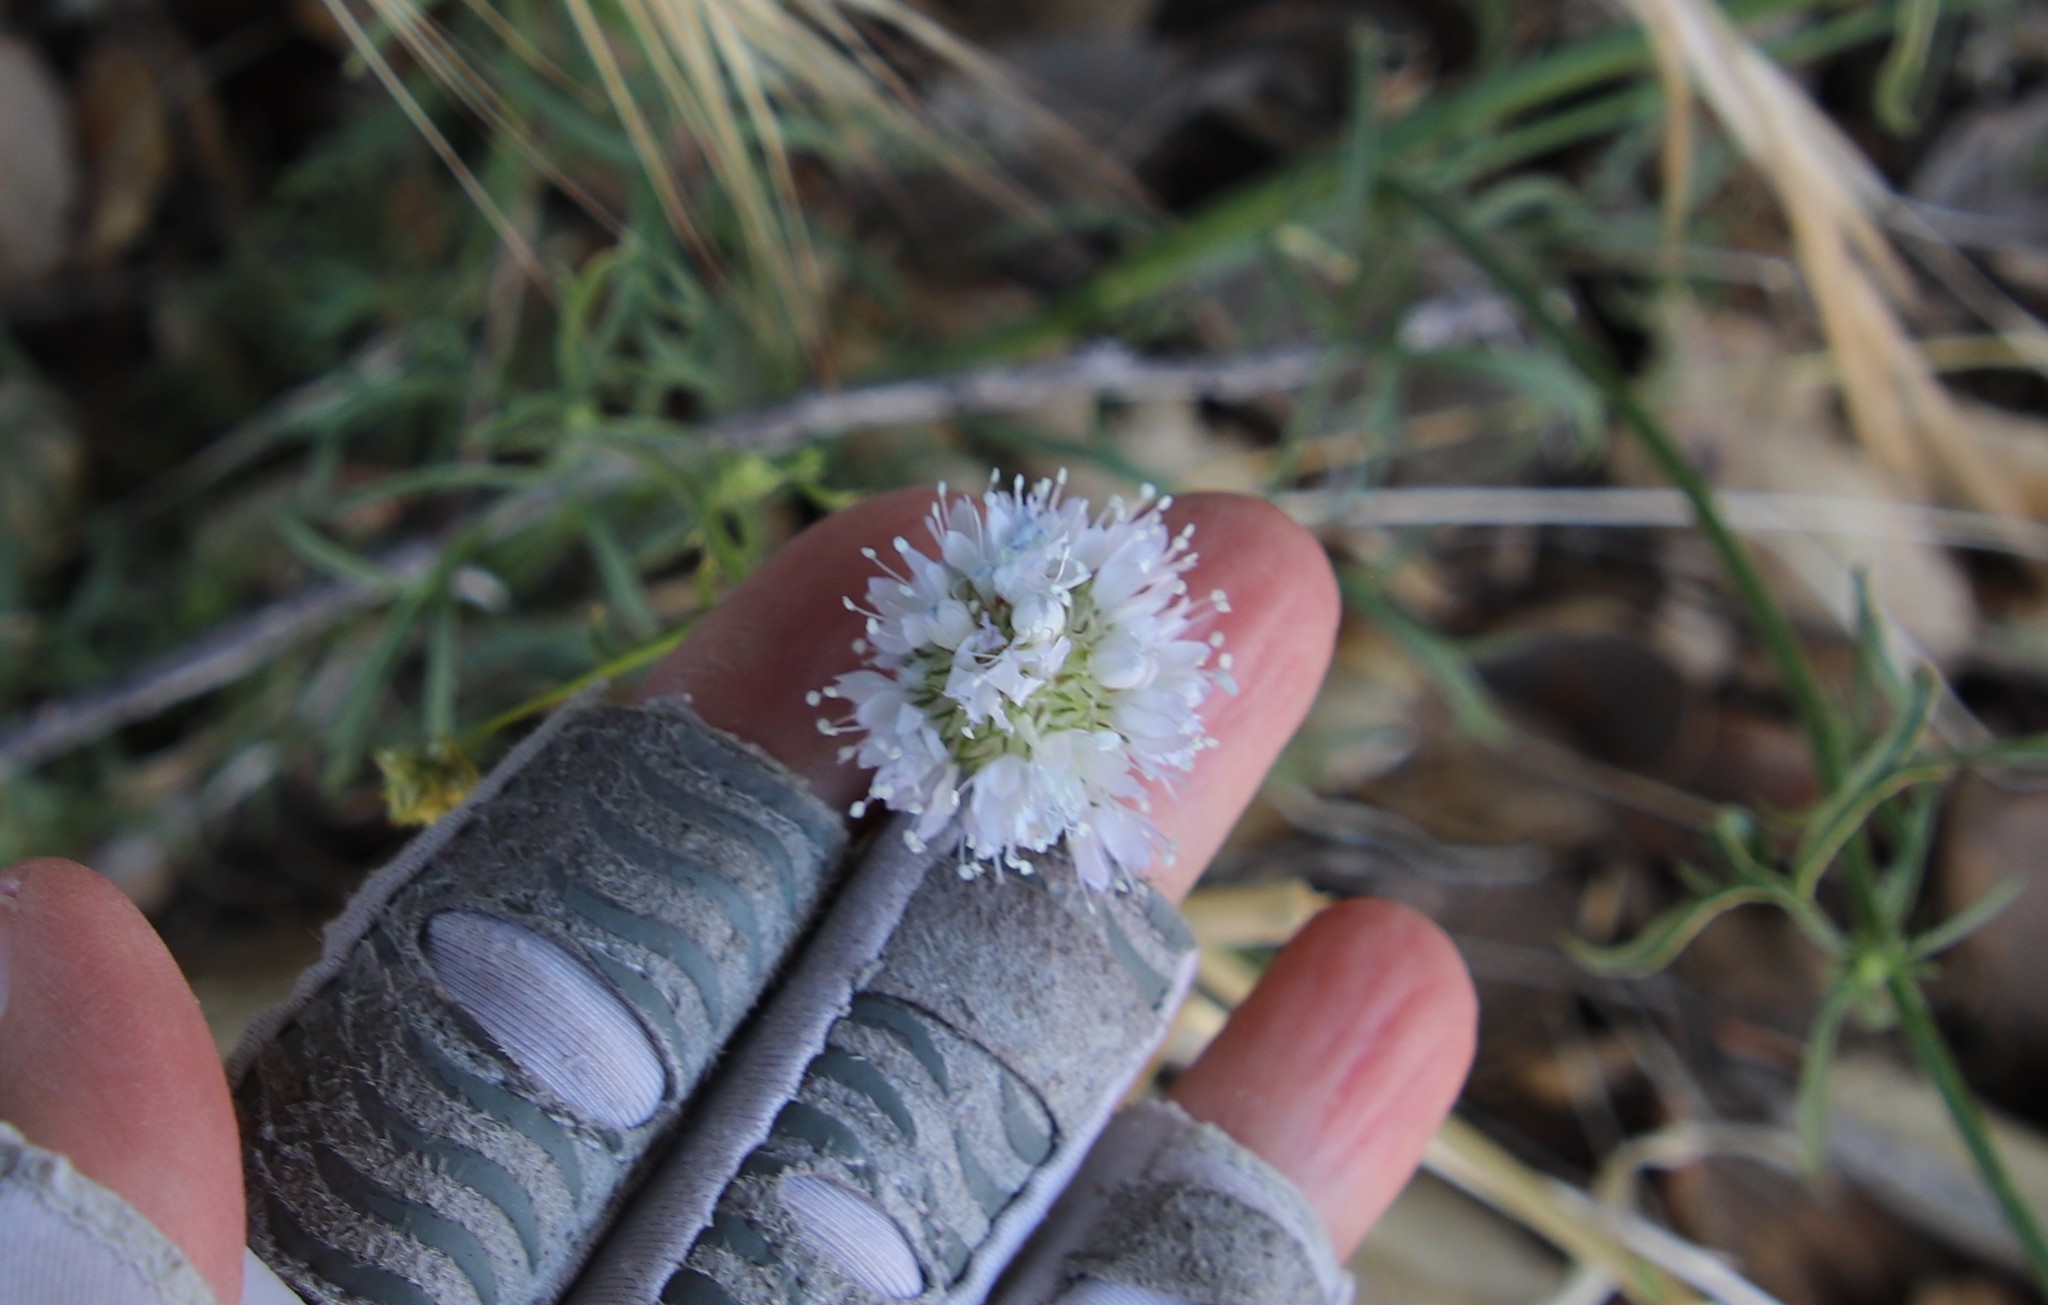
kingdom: Plantae
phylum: Tracheophyta
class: Magnoliopsida
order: Ericales
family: Polemoniaceae
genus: Gilia
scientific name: Gilia capitata
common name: Bluehead gilia
